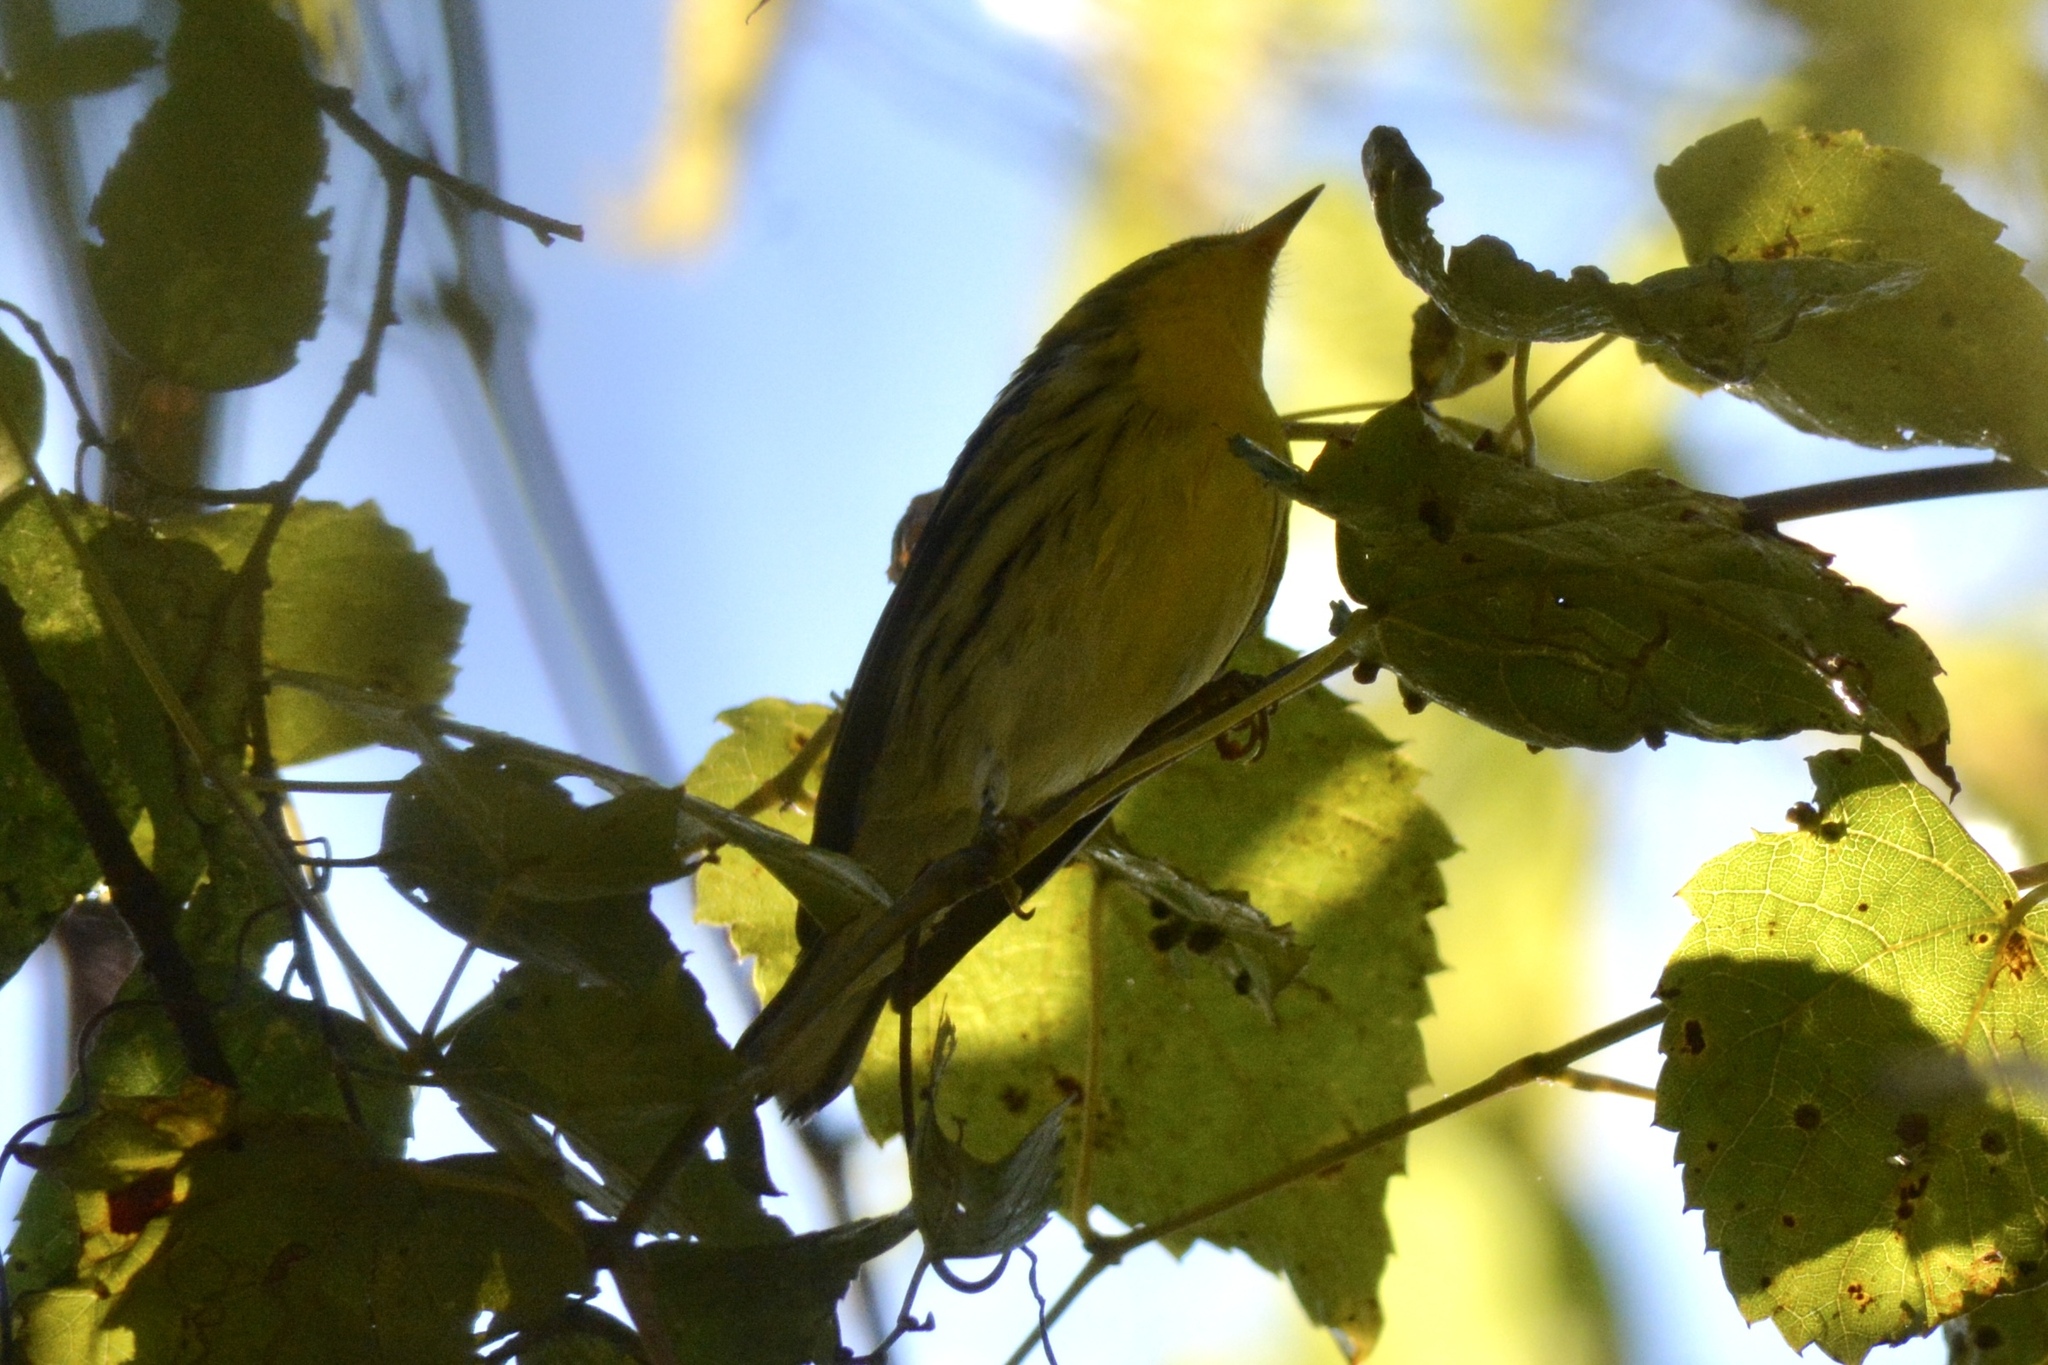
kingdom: Animalia
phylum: Chordata
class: Aves
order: Passeriformes
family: Parulidae
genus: Setophaga
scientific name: Setophaga fusca
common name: Blackburnian warbler
